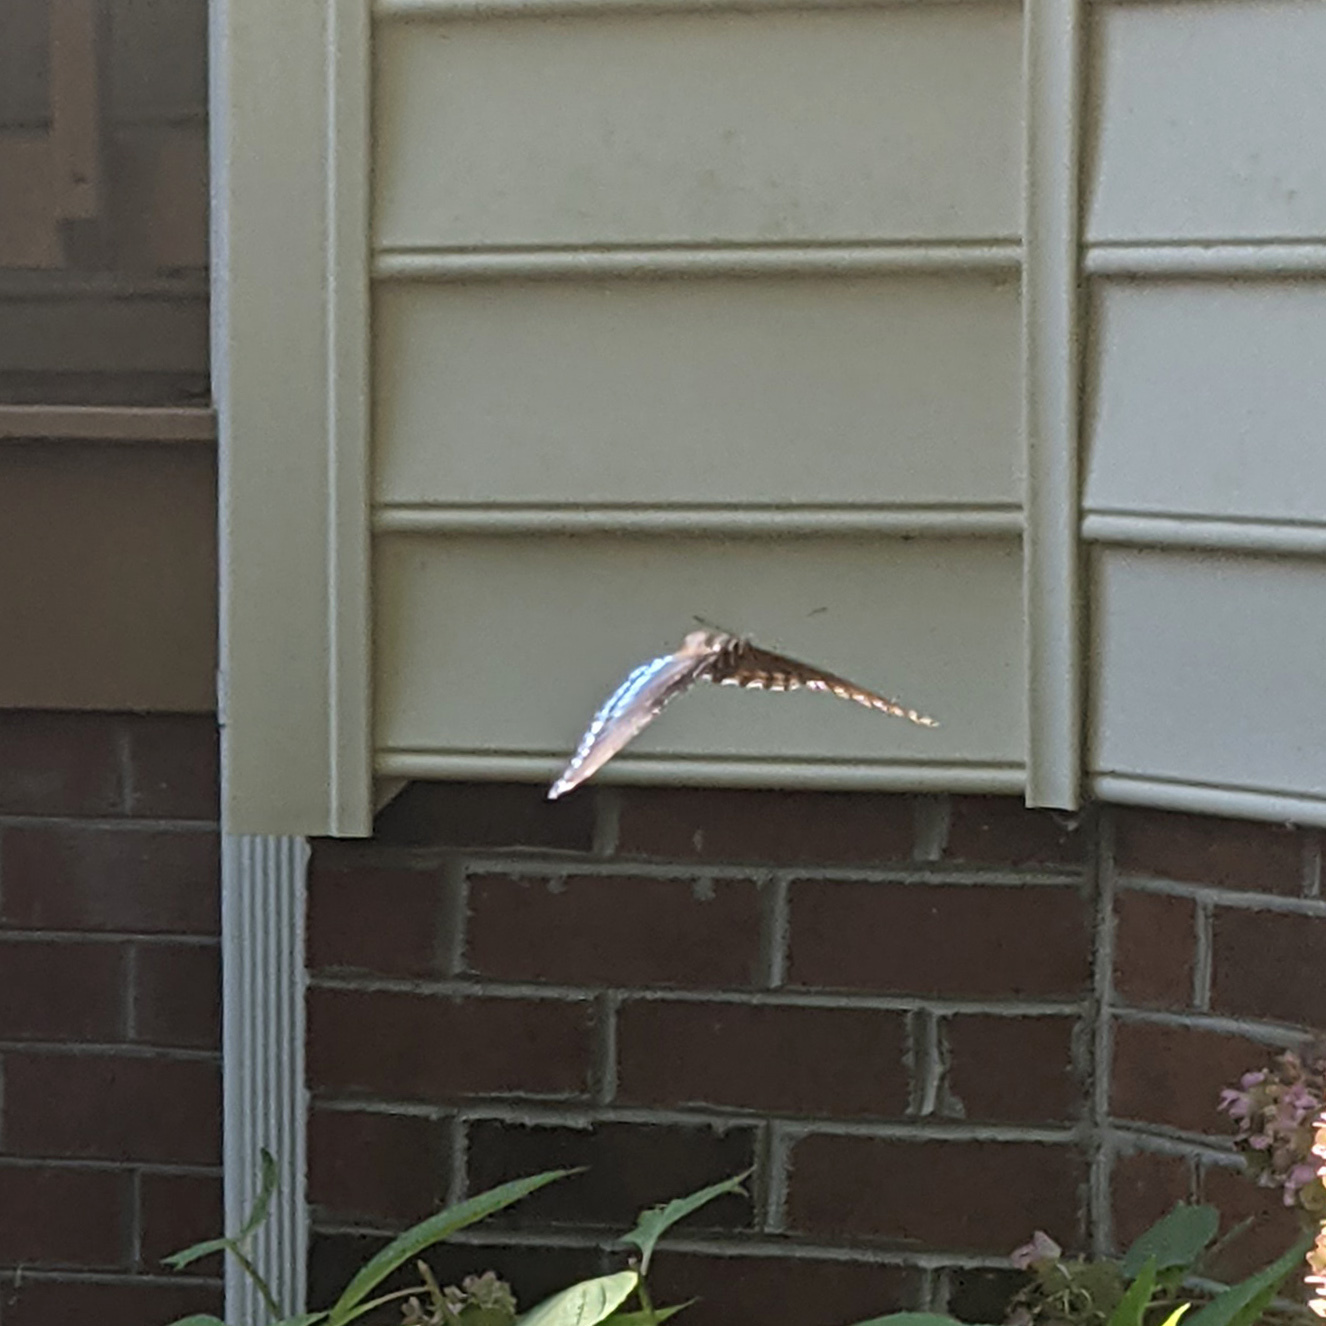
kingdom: Animalia
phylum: Arthropoda
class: Insecta
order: Lepidoptera
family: Nymphalidae
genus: Limenitis
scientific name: Limenitis astyanax
